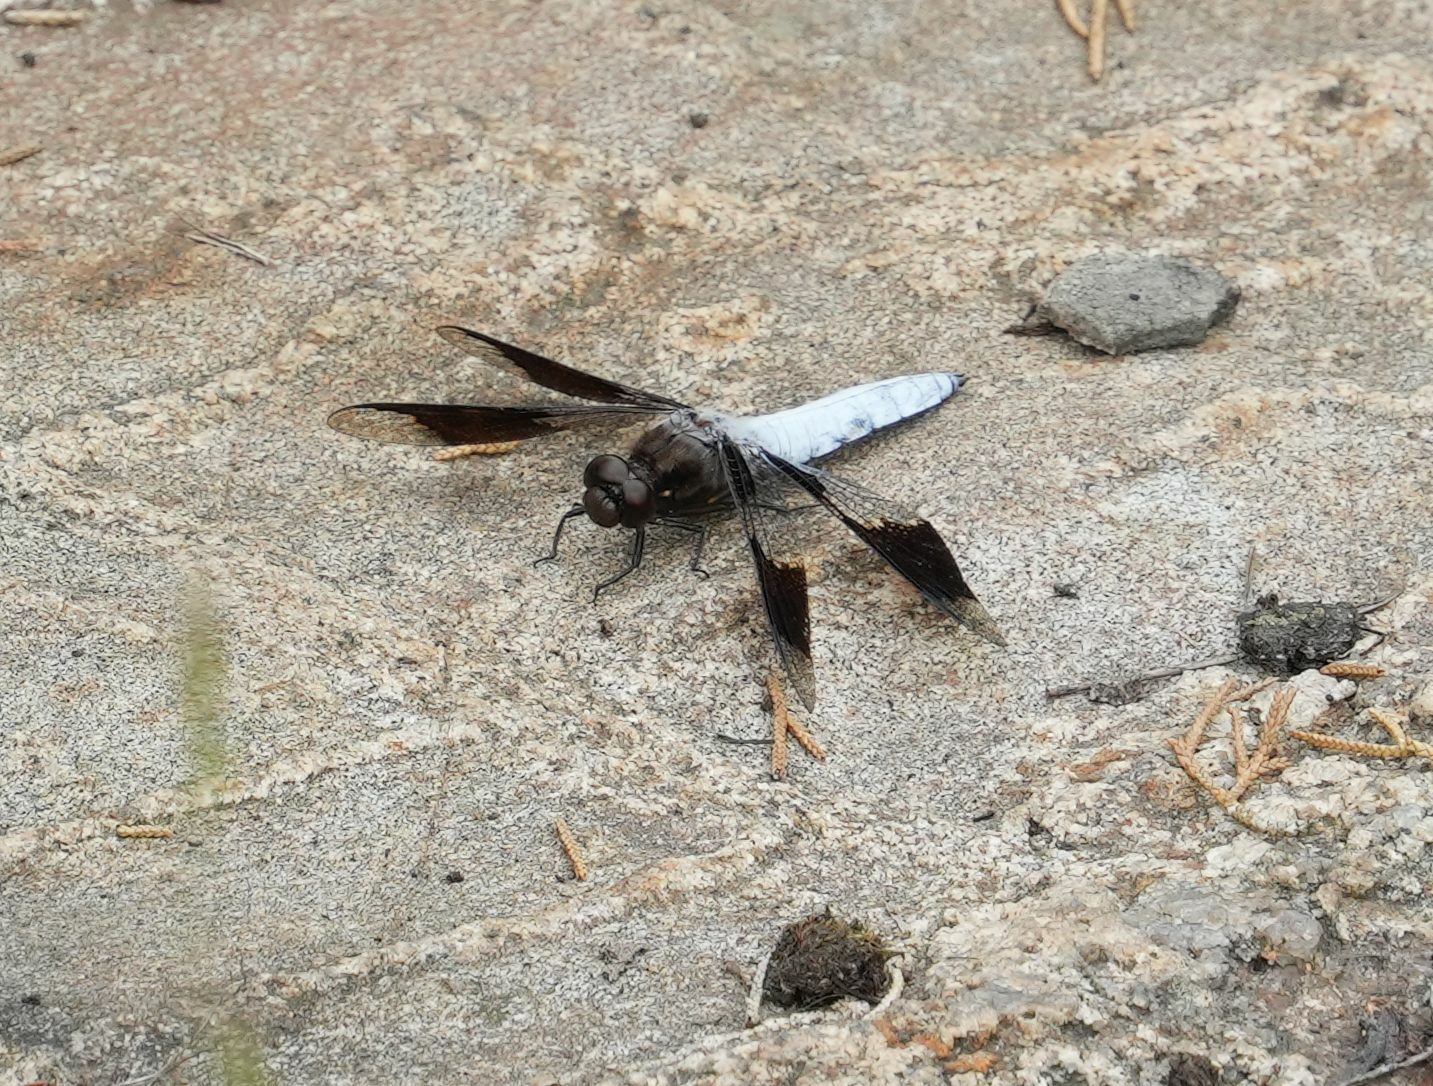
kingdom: Animalia
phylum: Arthropoda
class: Insecta
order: Odonata
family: Libellulidae
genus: Plathemis
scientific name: Plathemis lydia
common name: Common whitetail
